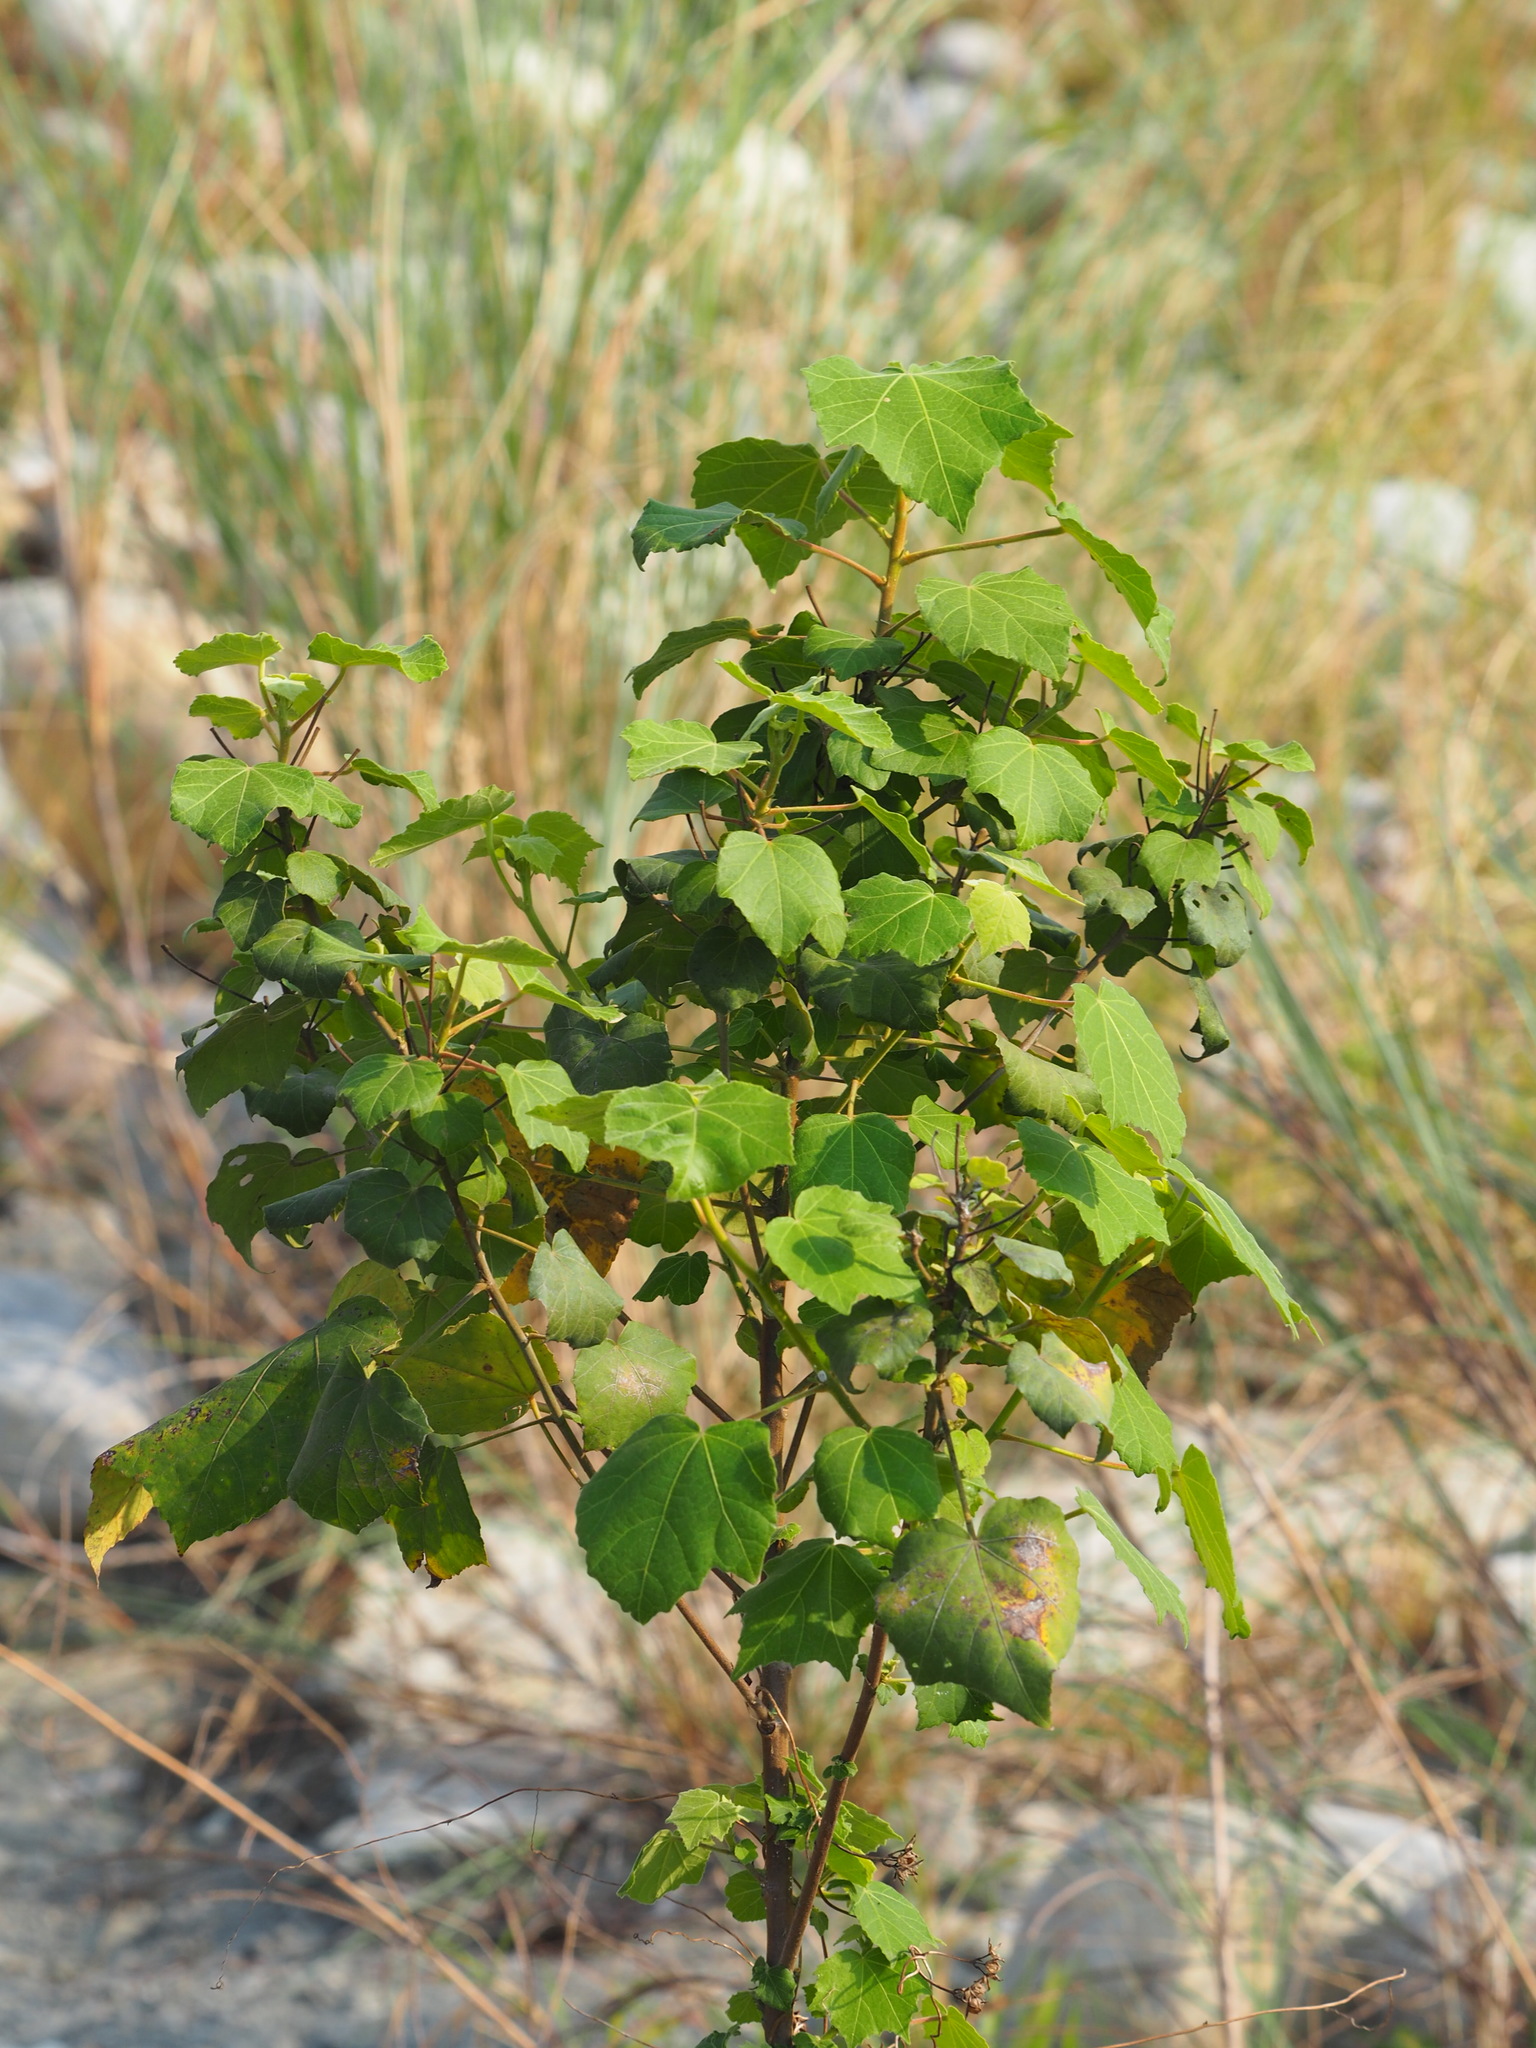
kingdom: Plantae
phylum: Tracheophyta
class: Magnoliopsida
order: Malvales
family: Malvaceae
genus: Hibiscus
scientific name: Hibiscus taiwanensis
